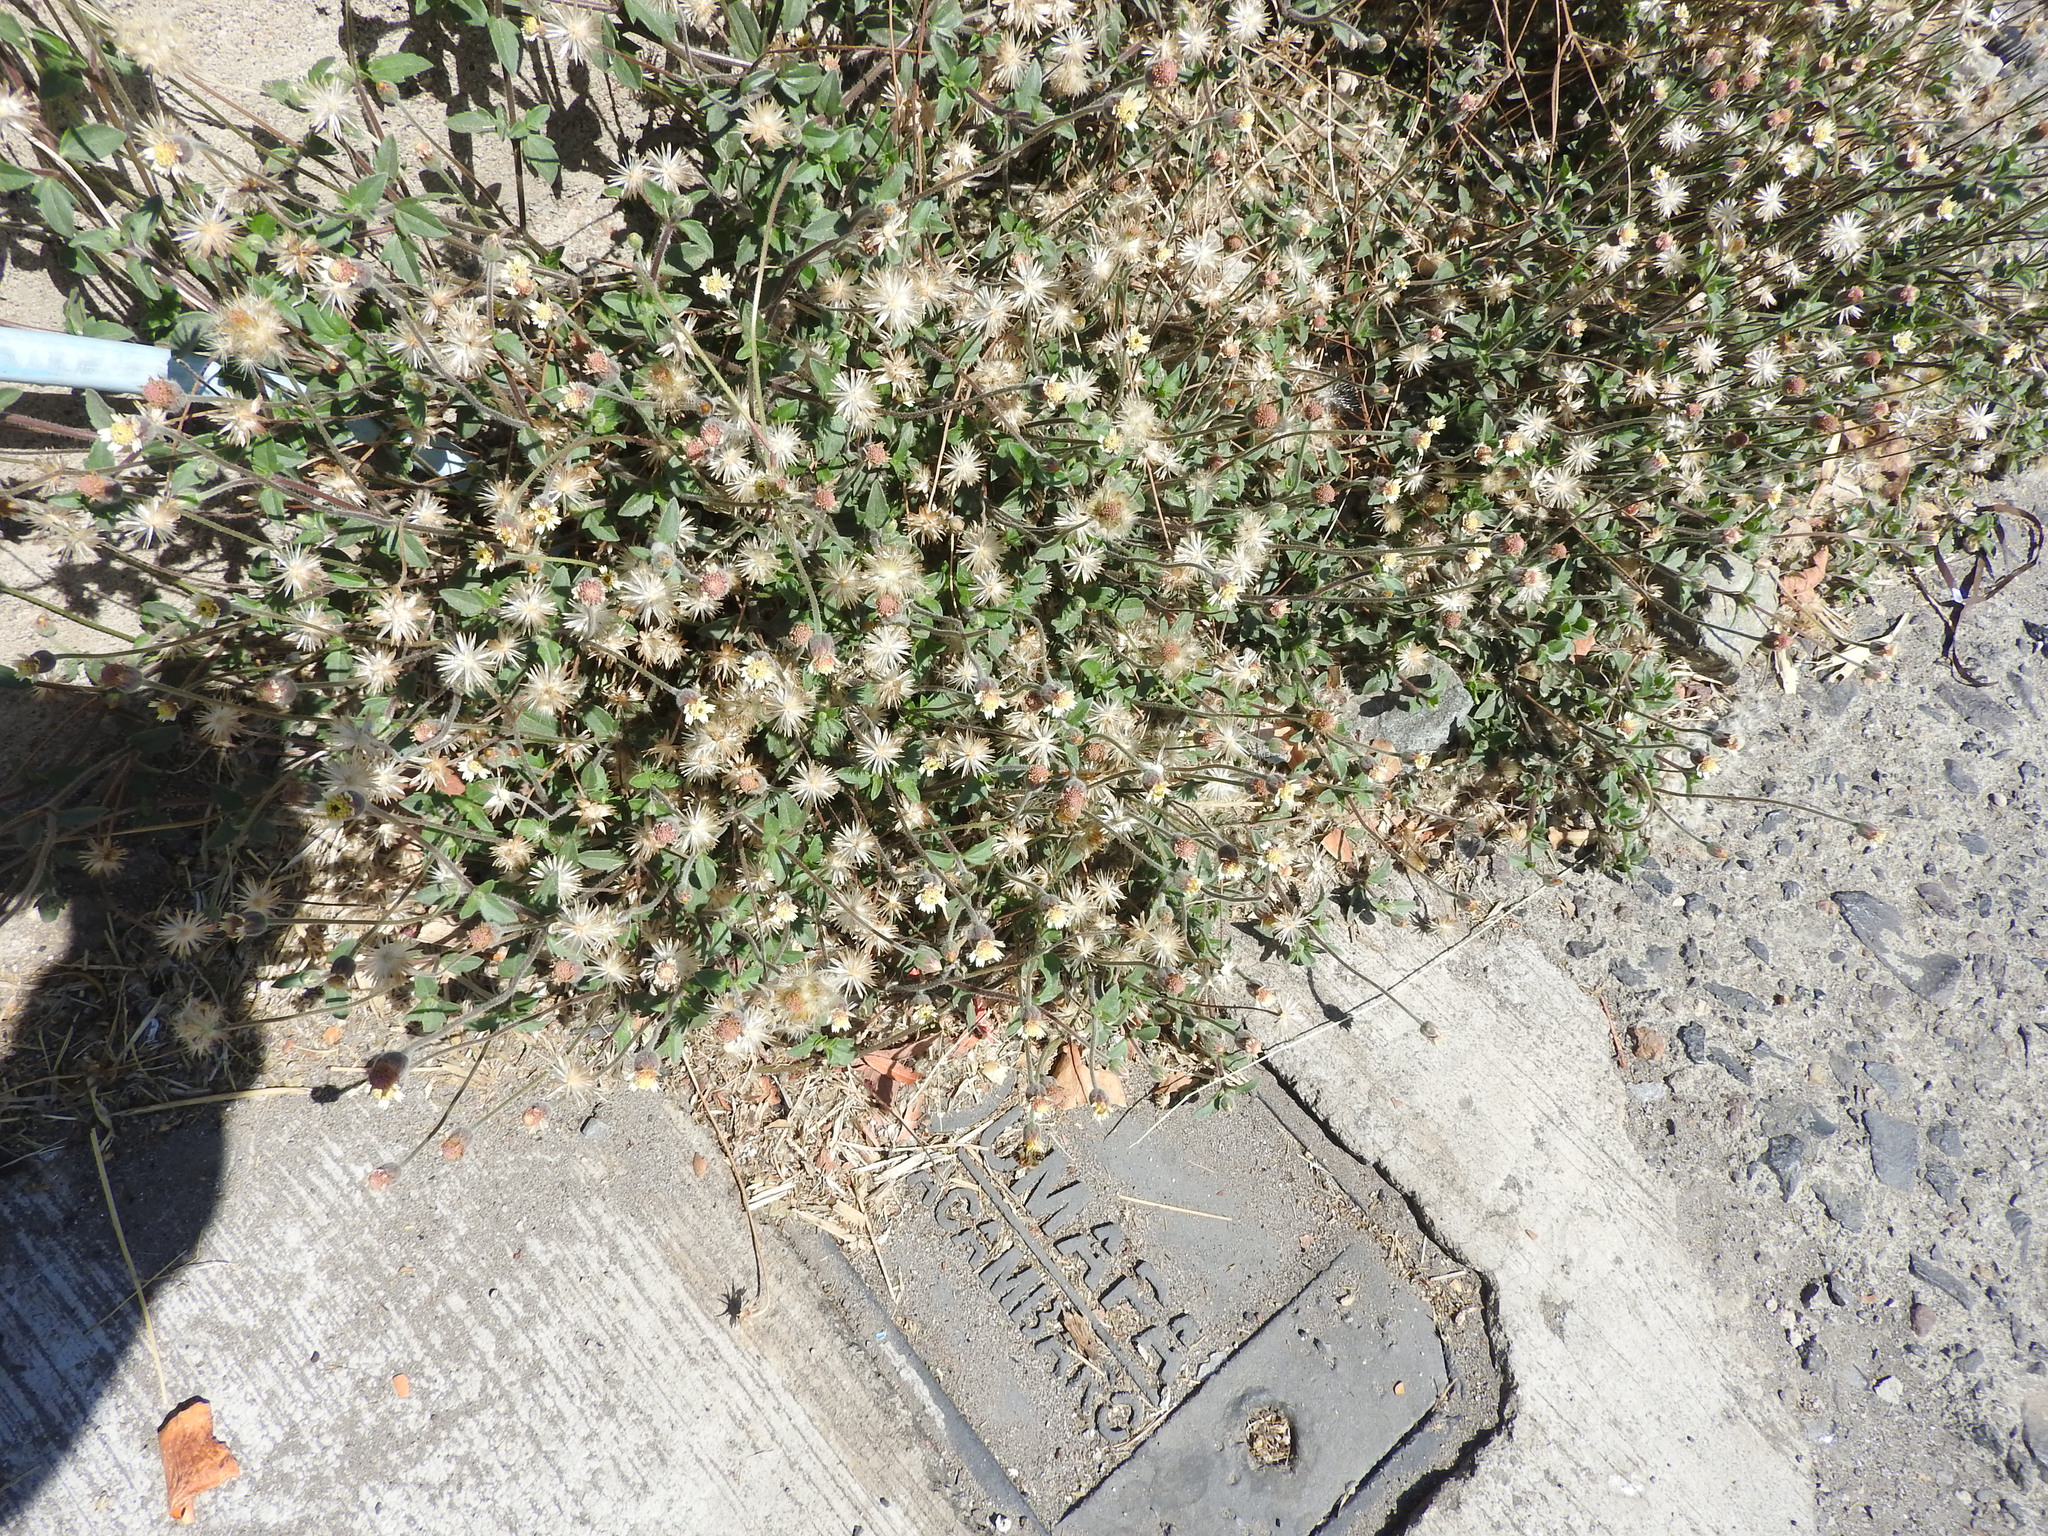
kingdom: Plantae
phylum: Tracheophyta
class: Magnoliopsida
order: Asterales
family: Asteraceae
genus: Tridax
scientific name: Tridax procumbens
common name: Coatbuttons
